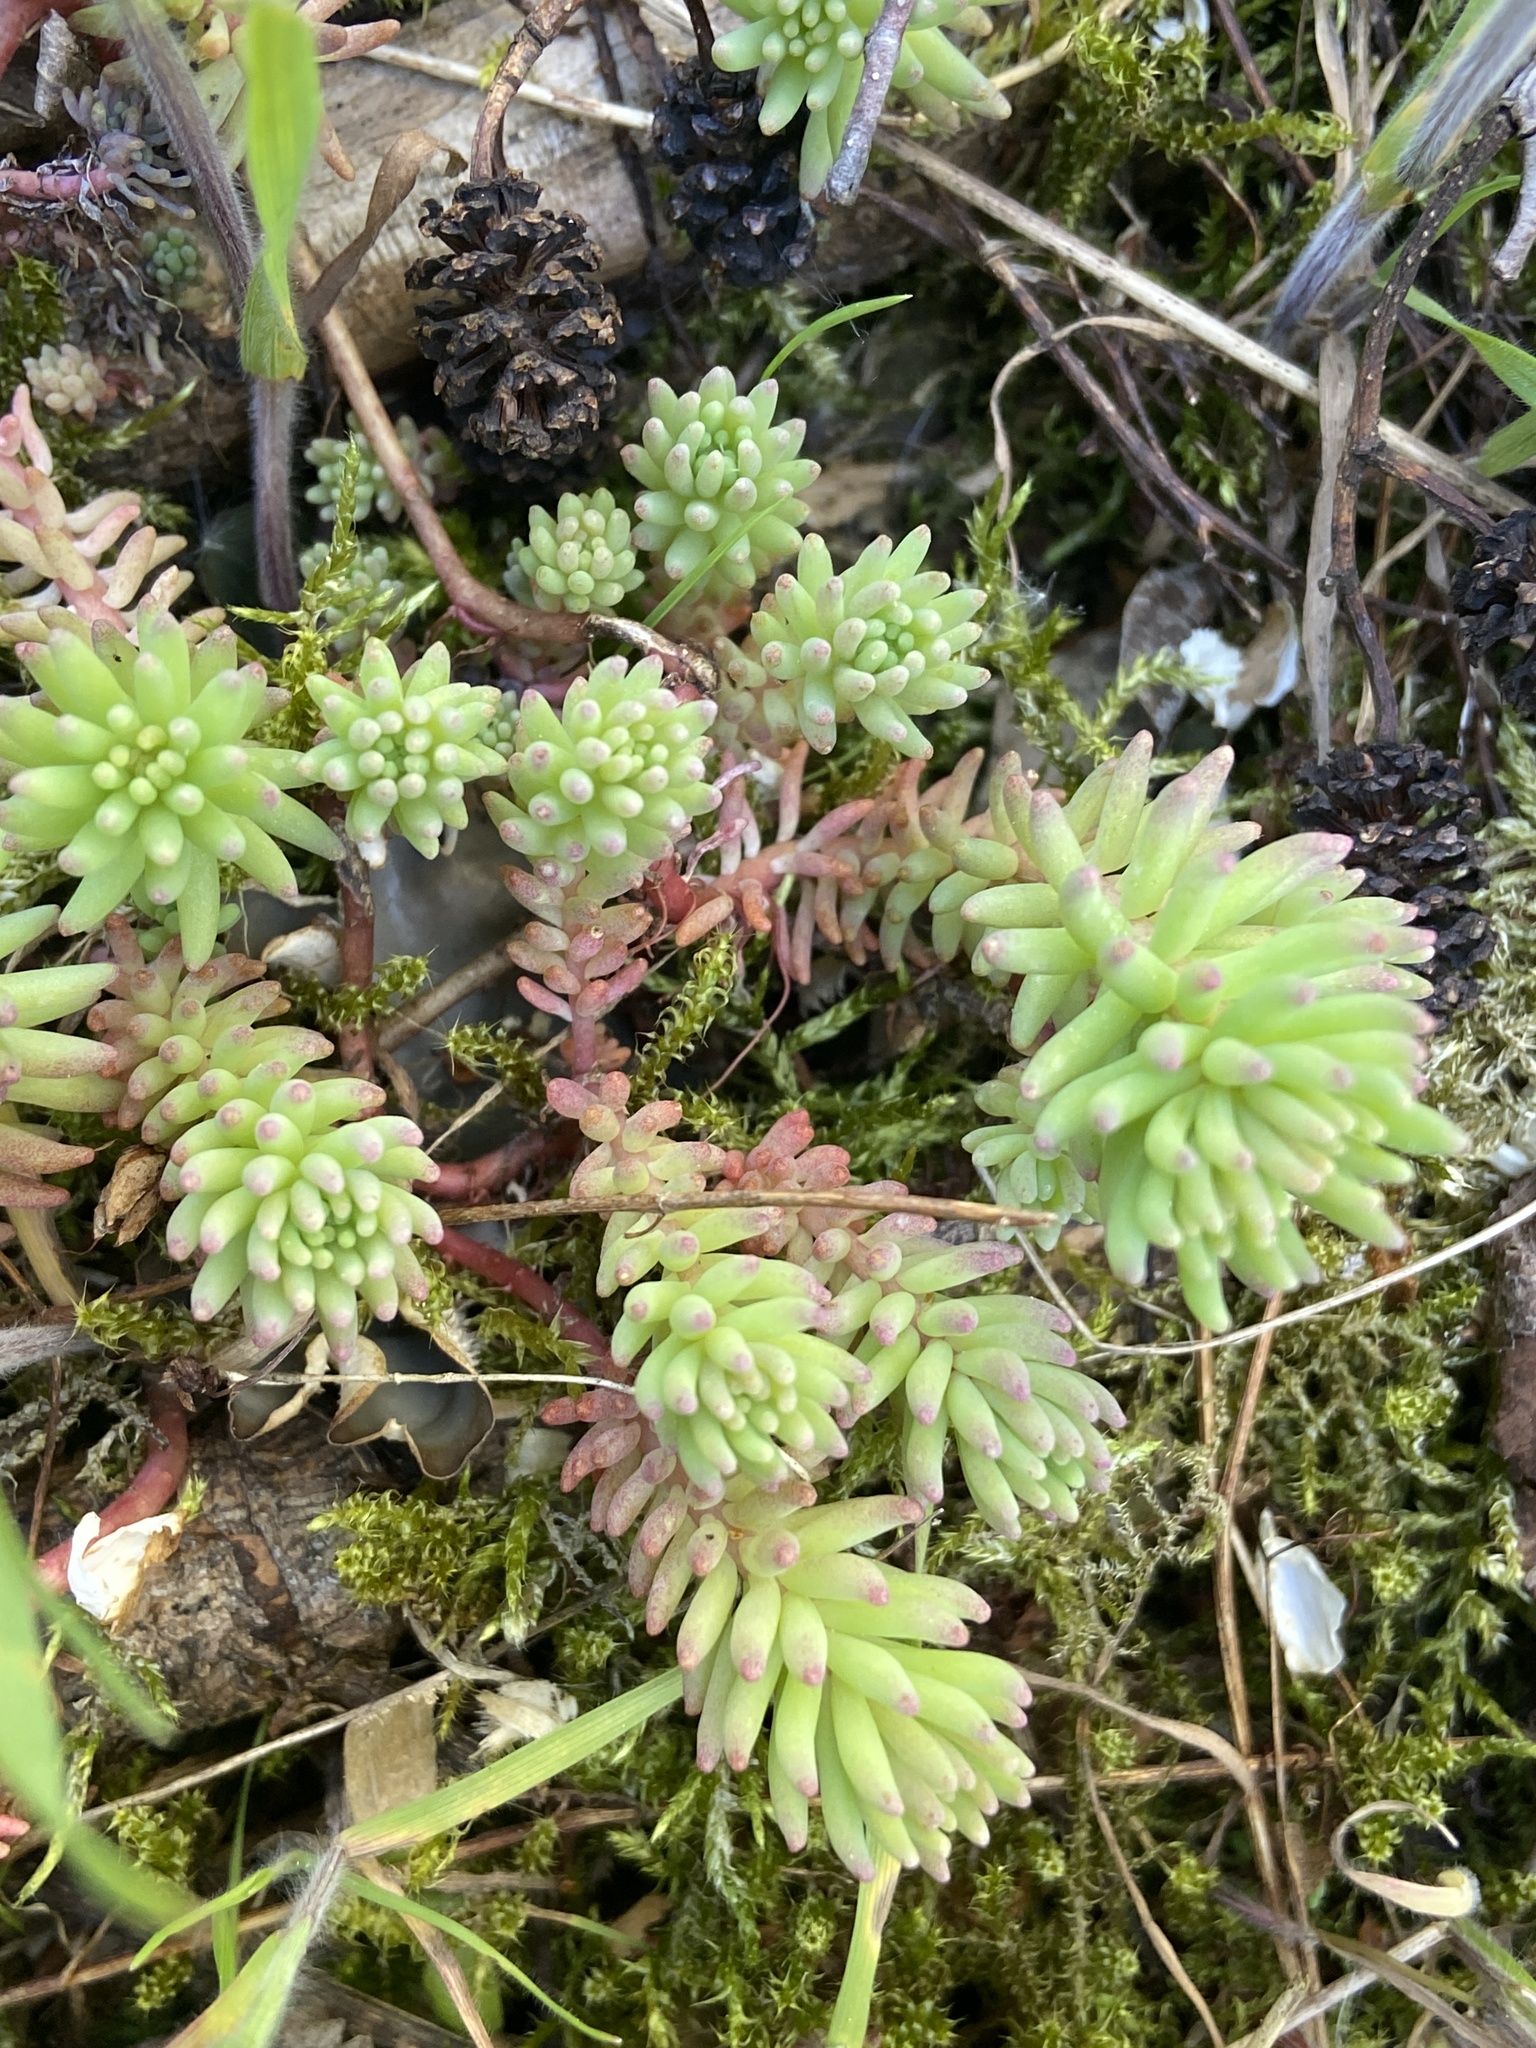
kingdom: Plantae
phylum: Tracheophyta
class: Magnoliopsida
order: Saxifragales
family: Crassulaceae
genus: Sedum
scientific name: Sedum pallidum
